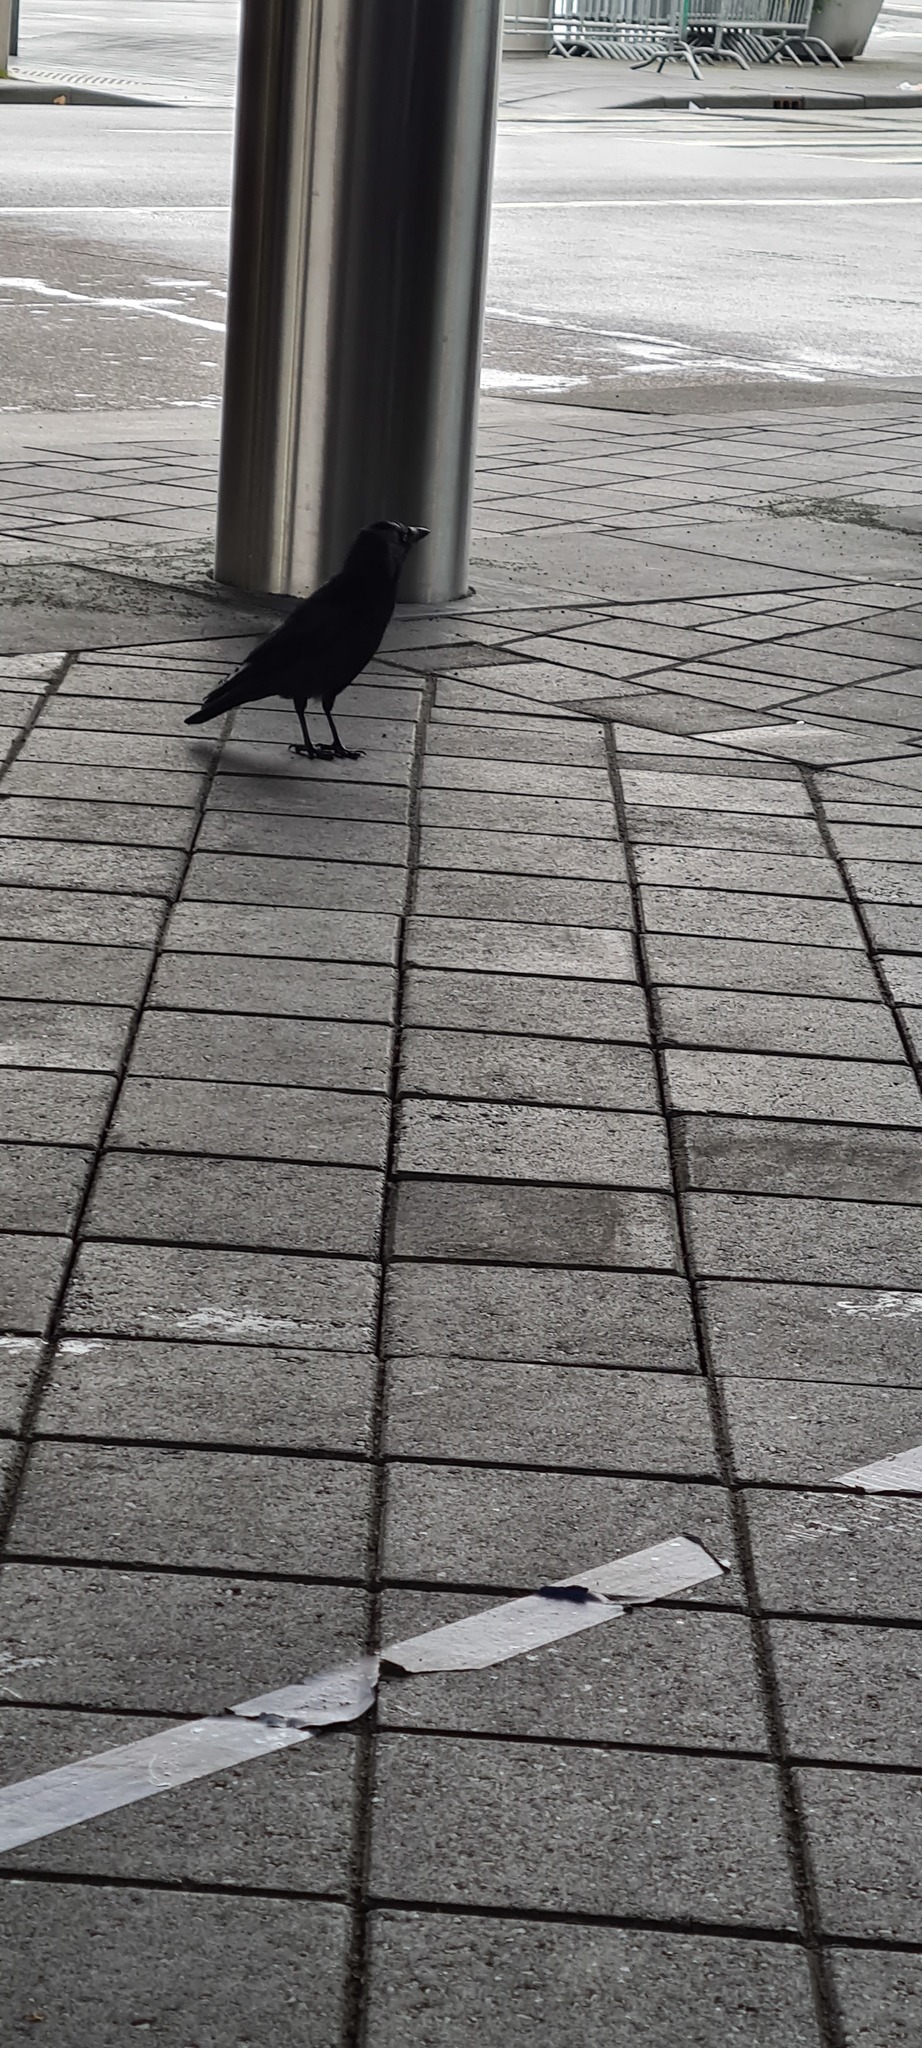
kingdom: Animalia
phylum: Chordata
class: Aves
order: Passeriformes
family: Corvidae
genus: Coloeus
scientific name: Coloeus monedula
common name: Western jackdaw
